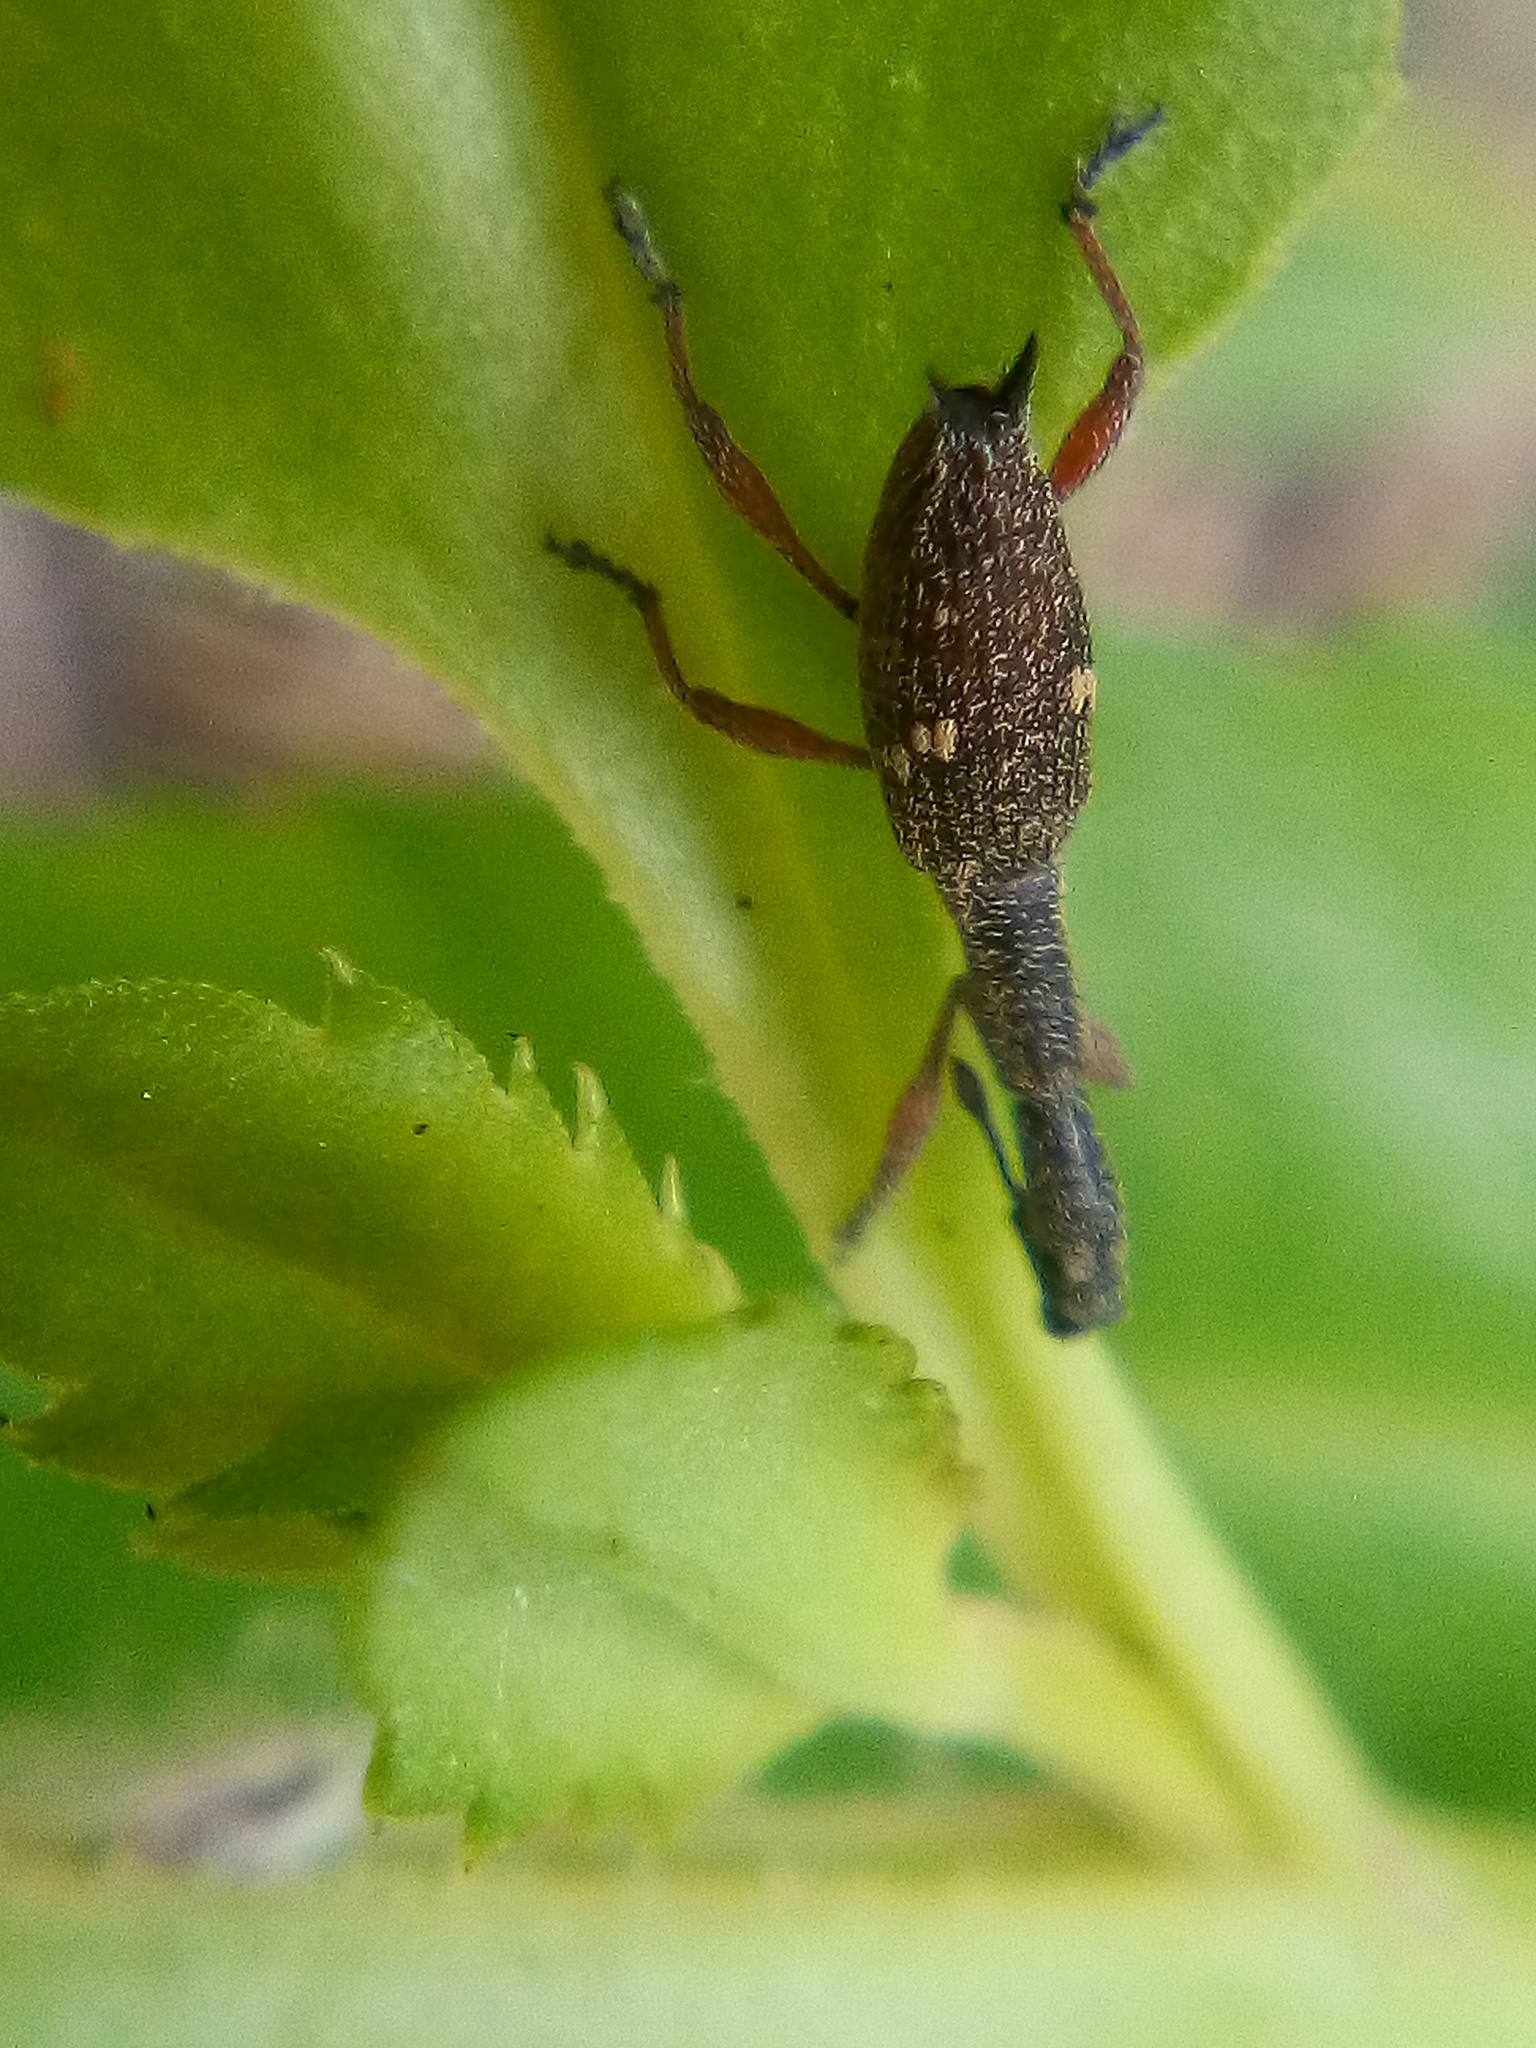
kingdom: Animalia
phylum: Arthropoda
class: Insecta
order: Coleoptera
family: Curculionidae
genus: Rhadinosomus
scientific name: Rhadinosomus acuminatus
